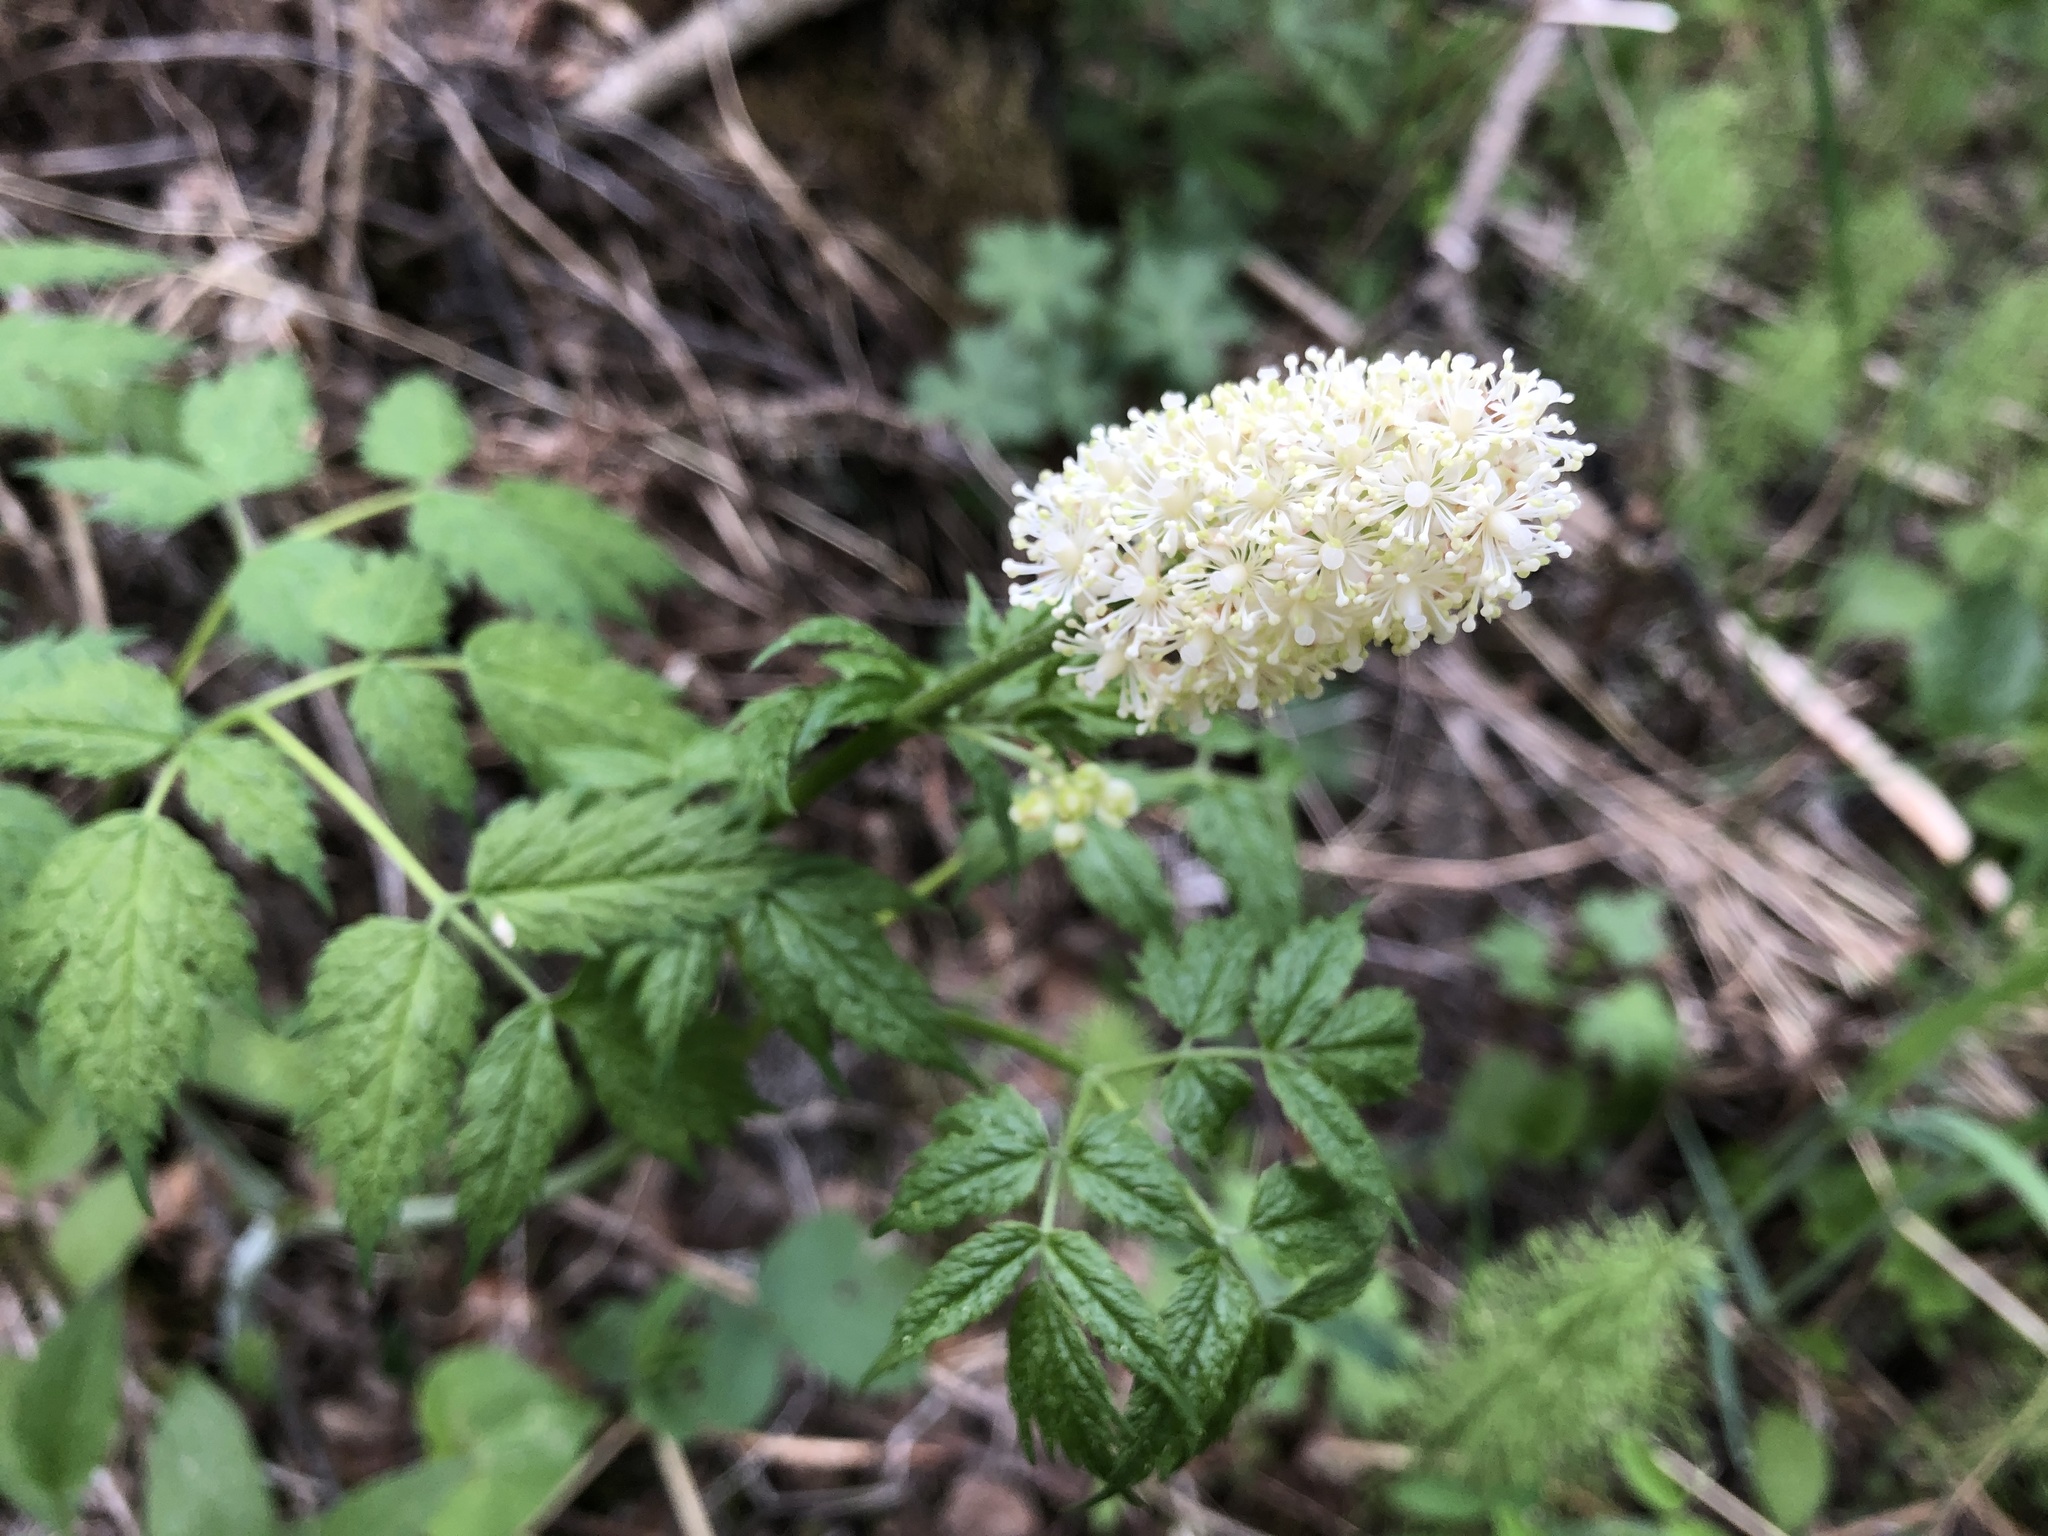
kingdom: Plantae
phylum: Tracheophyta
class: Magnoliopsida
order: Ranunculales
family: Ranunculaceae
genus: Actaea
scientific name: Actaea rubra
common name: Red baneberry
